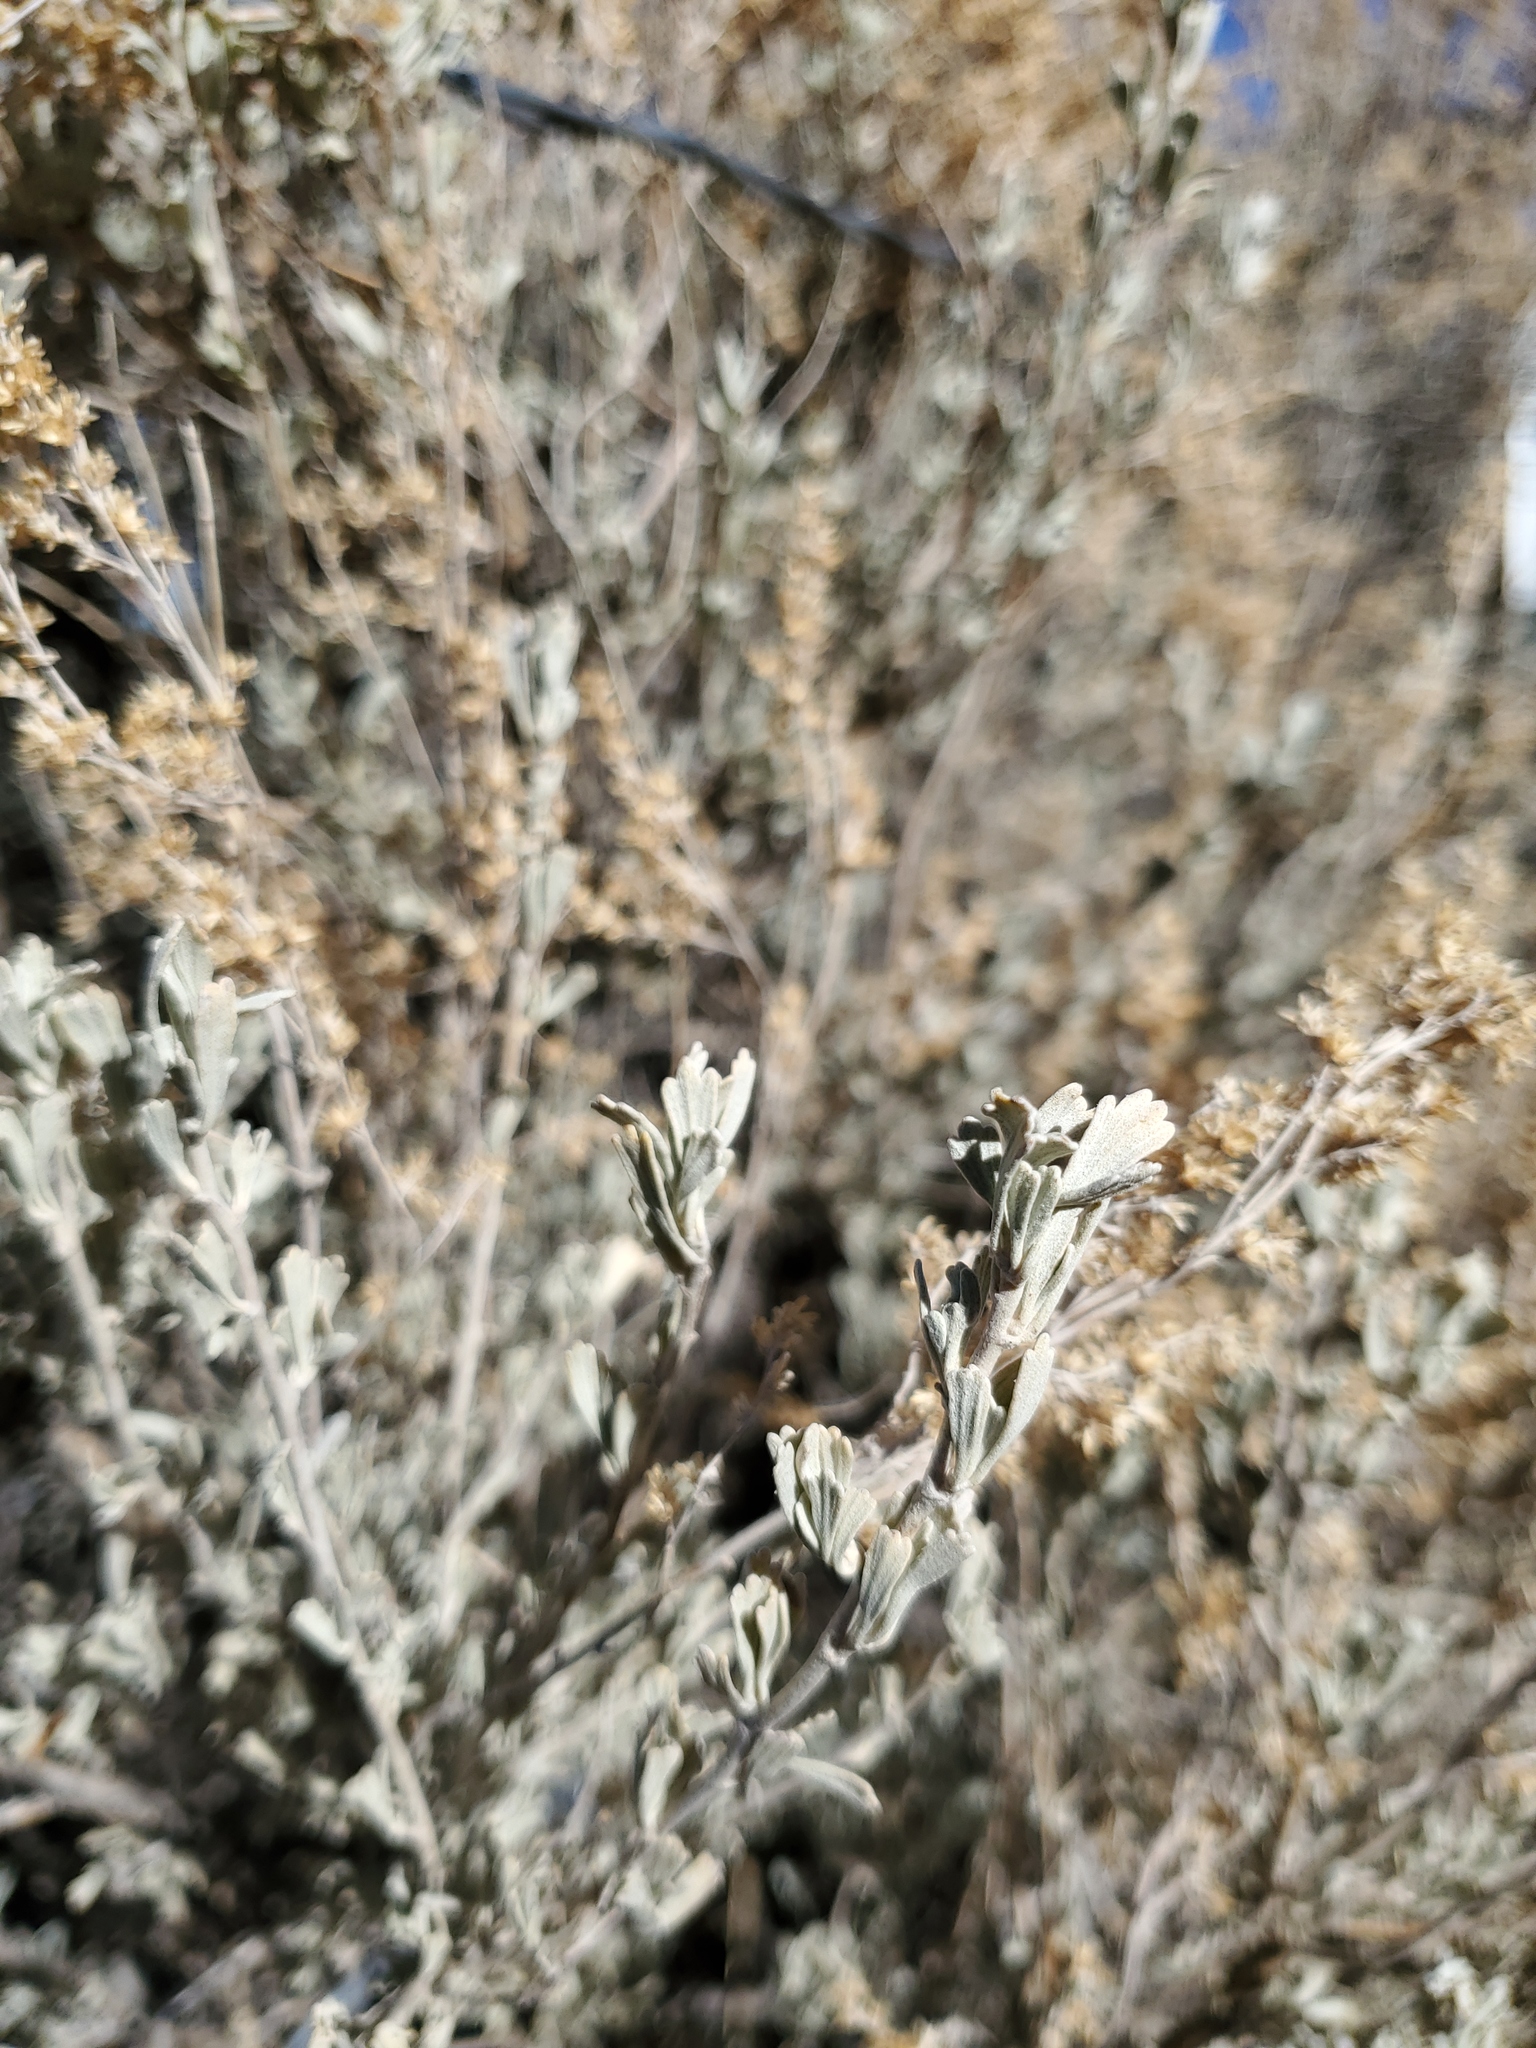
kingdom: Plantae
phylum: Tracheophyta
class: Magnoliopsida
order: Asterales
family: Asteraceae
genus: Artemisia
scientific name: Artemisia tridentata
